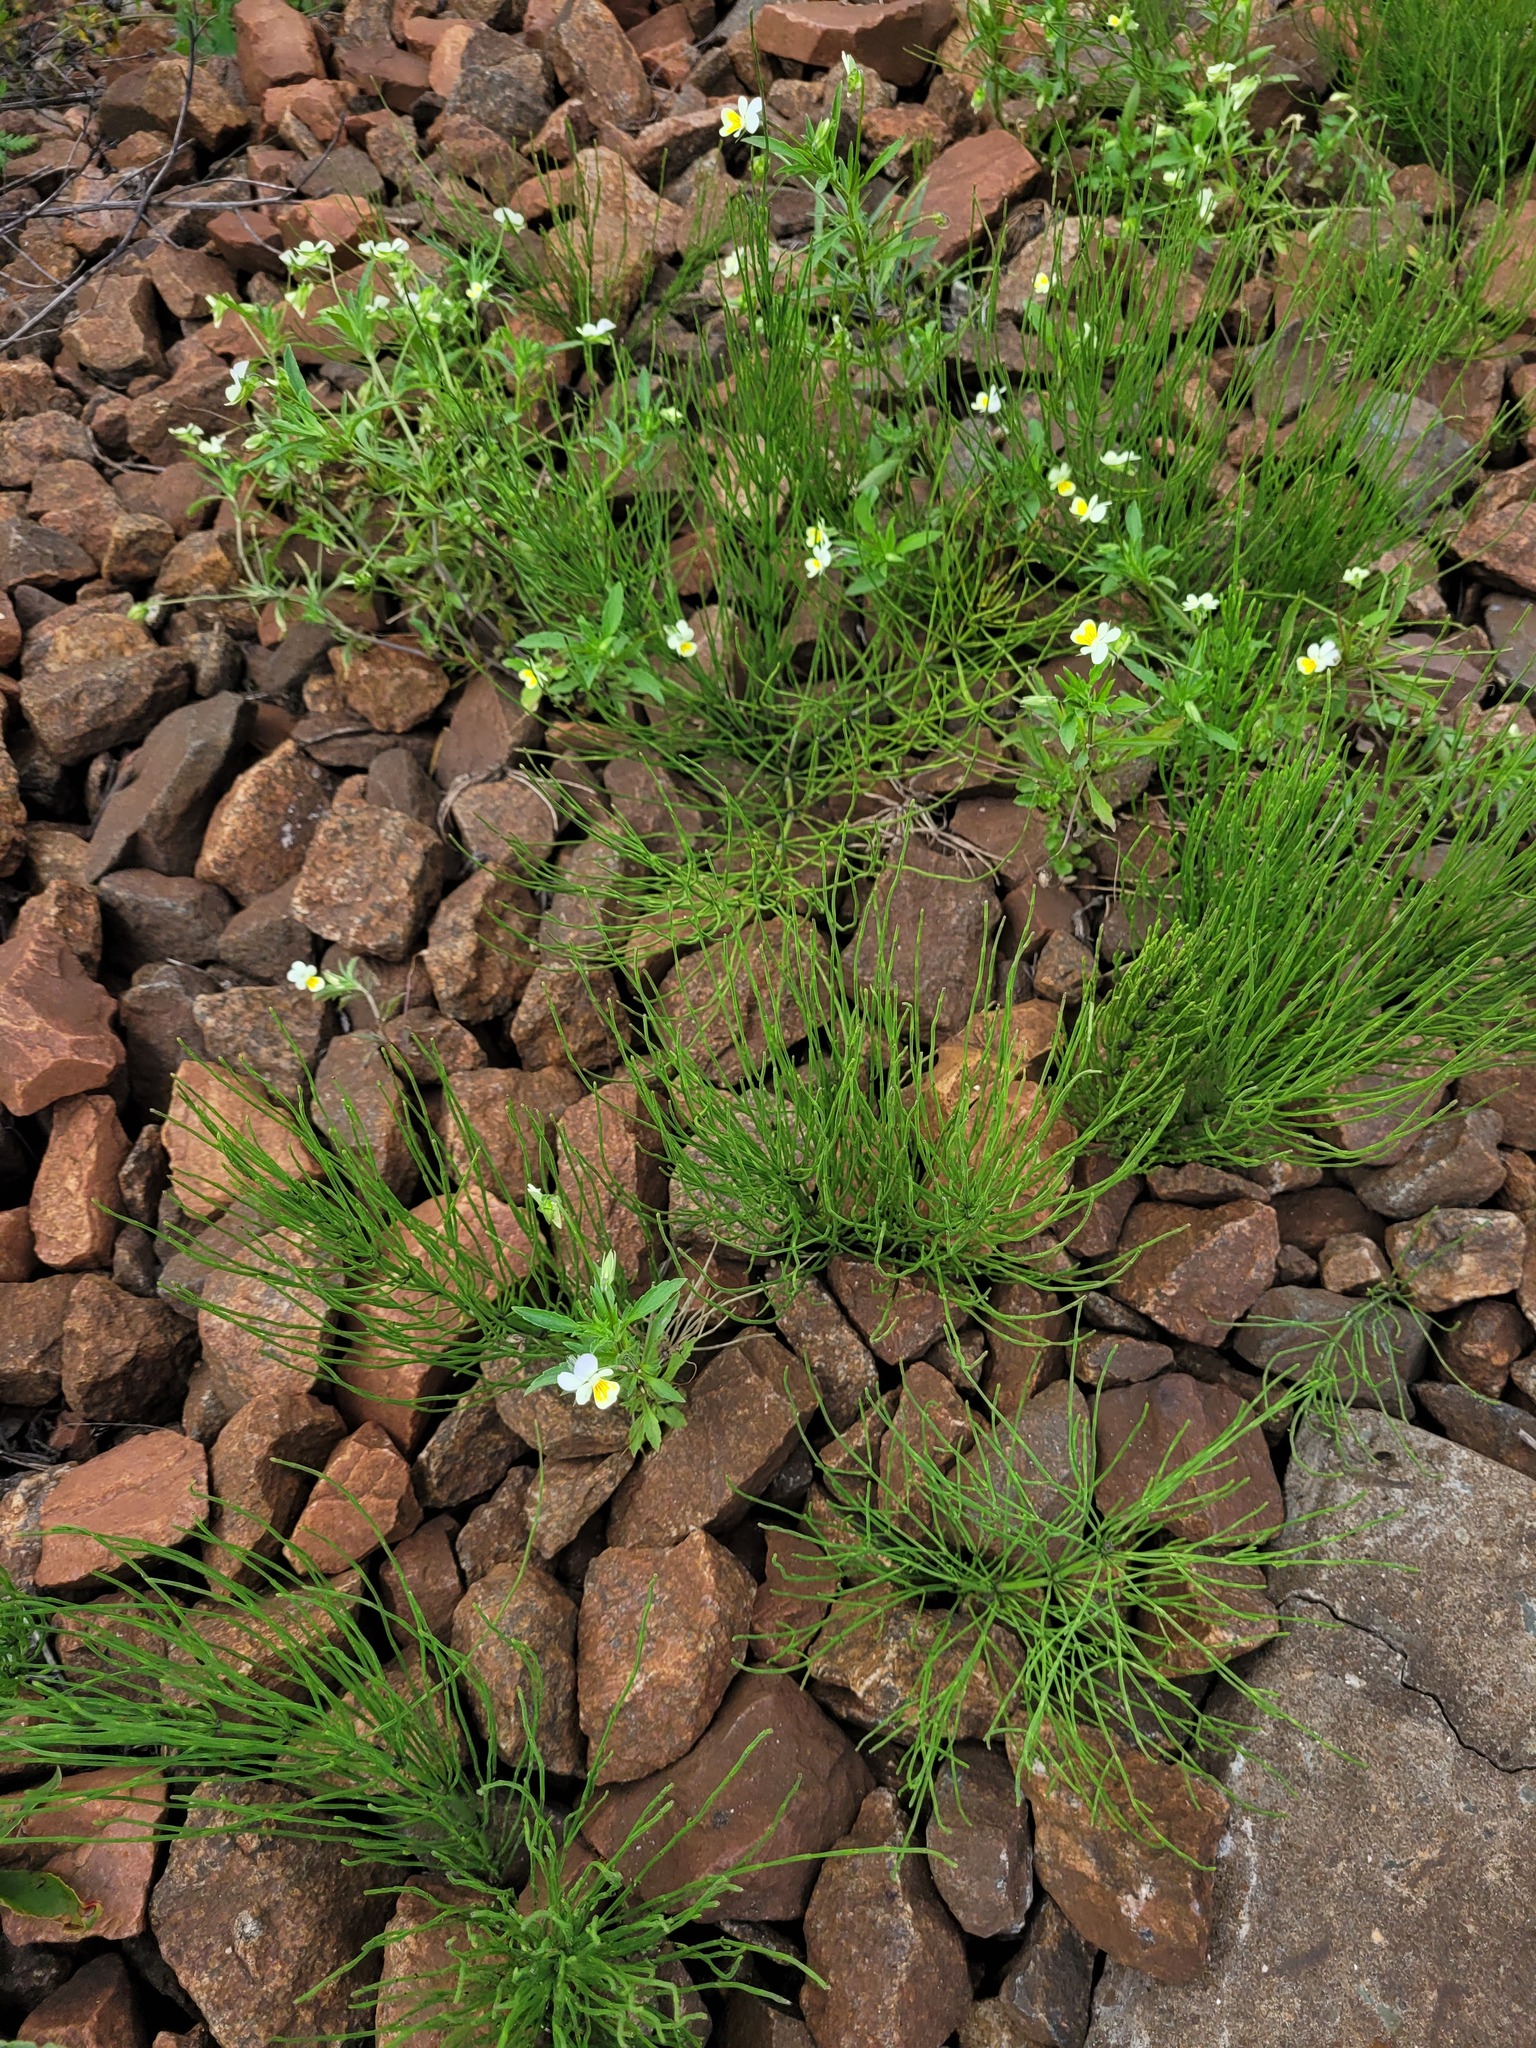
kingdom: Plantae
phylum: Tracheophyta
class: Magnoliopsida
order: Malpighiales
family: Violaceae
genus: Viola
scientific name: Viola contempta
